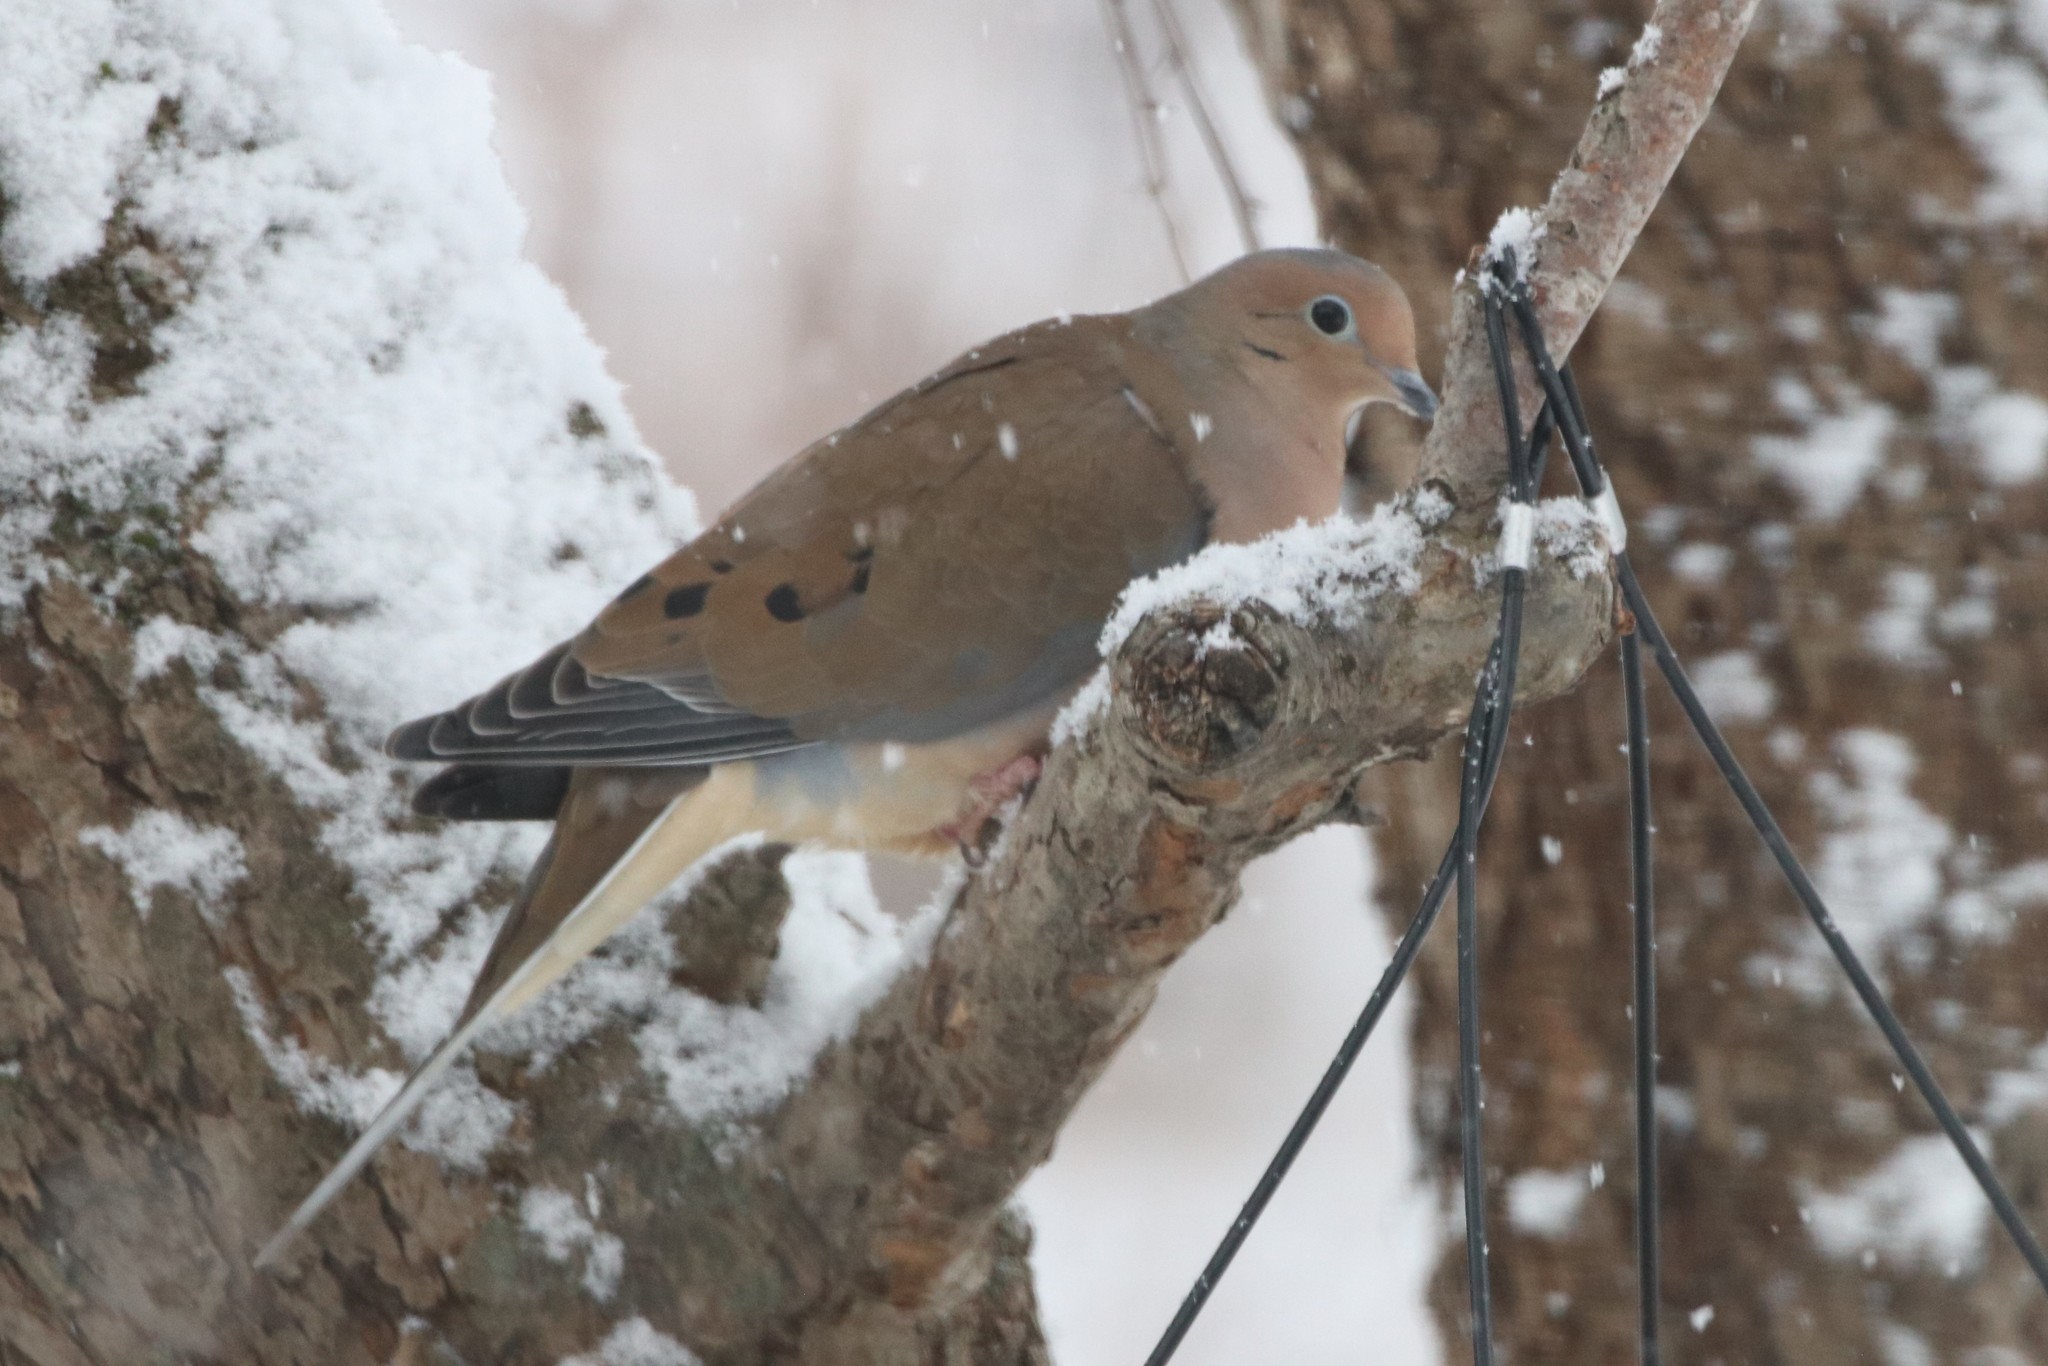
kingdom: Animalia
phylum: Chordata
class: Aves
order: Columbiformes
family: Columbidae
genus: Zenaida
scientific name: Zenaida macroura
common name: Mourning dove
